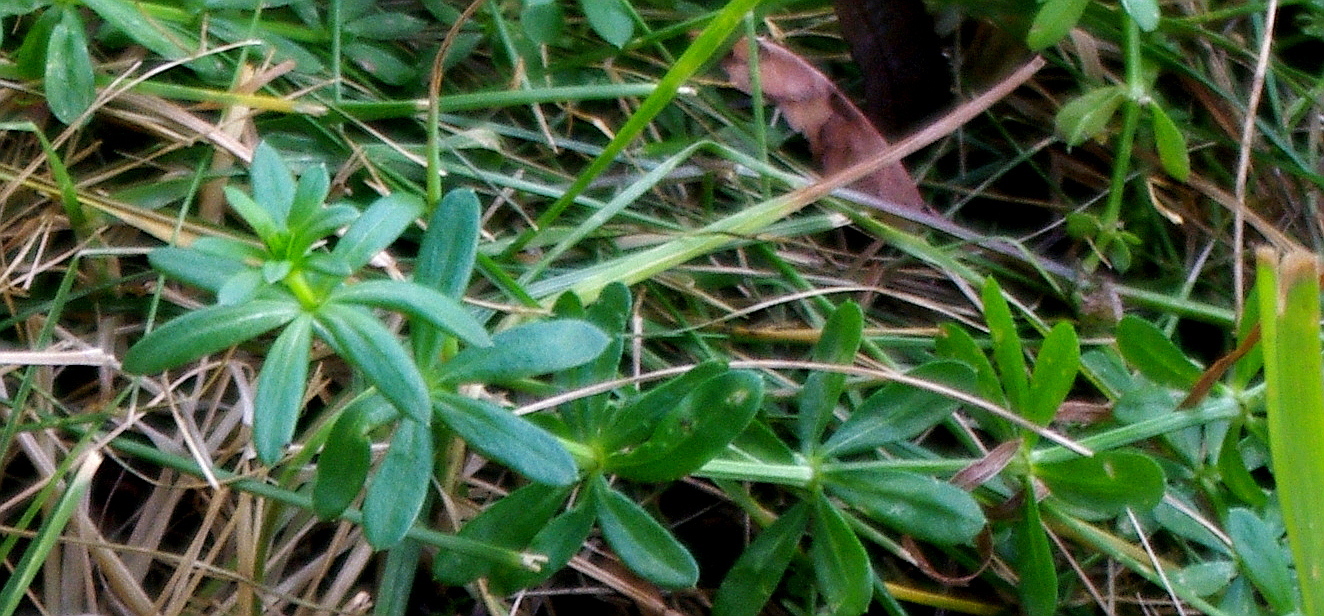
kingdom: Plantae
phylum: Tracheophyta
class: Magnoliopsida
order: Gentianales
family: Rubiaceae
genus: Galium
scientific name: Galium mollugo
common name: Hedge bedstraw
